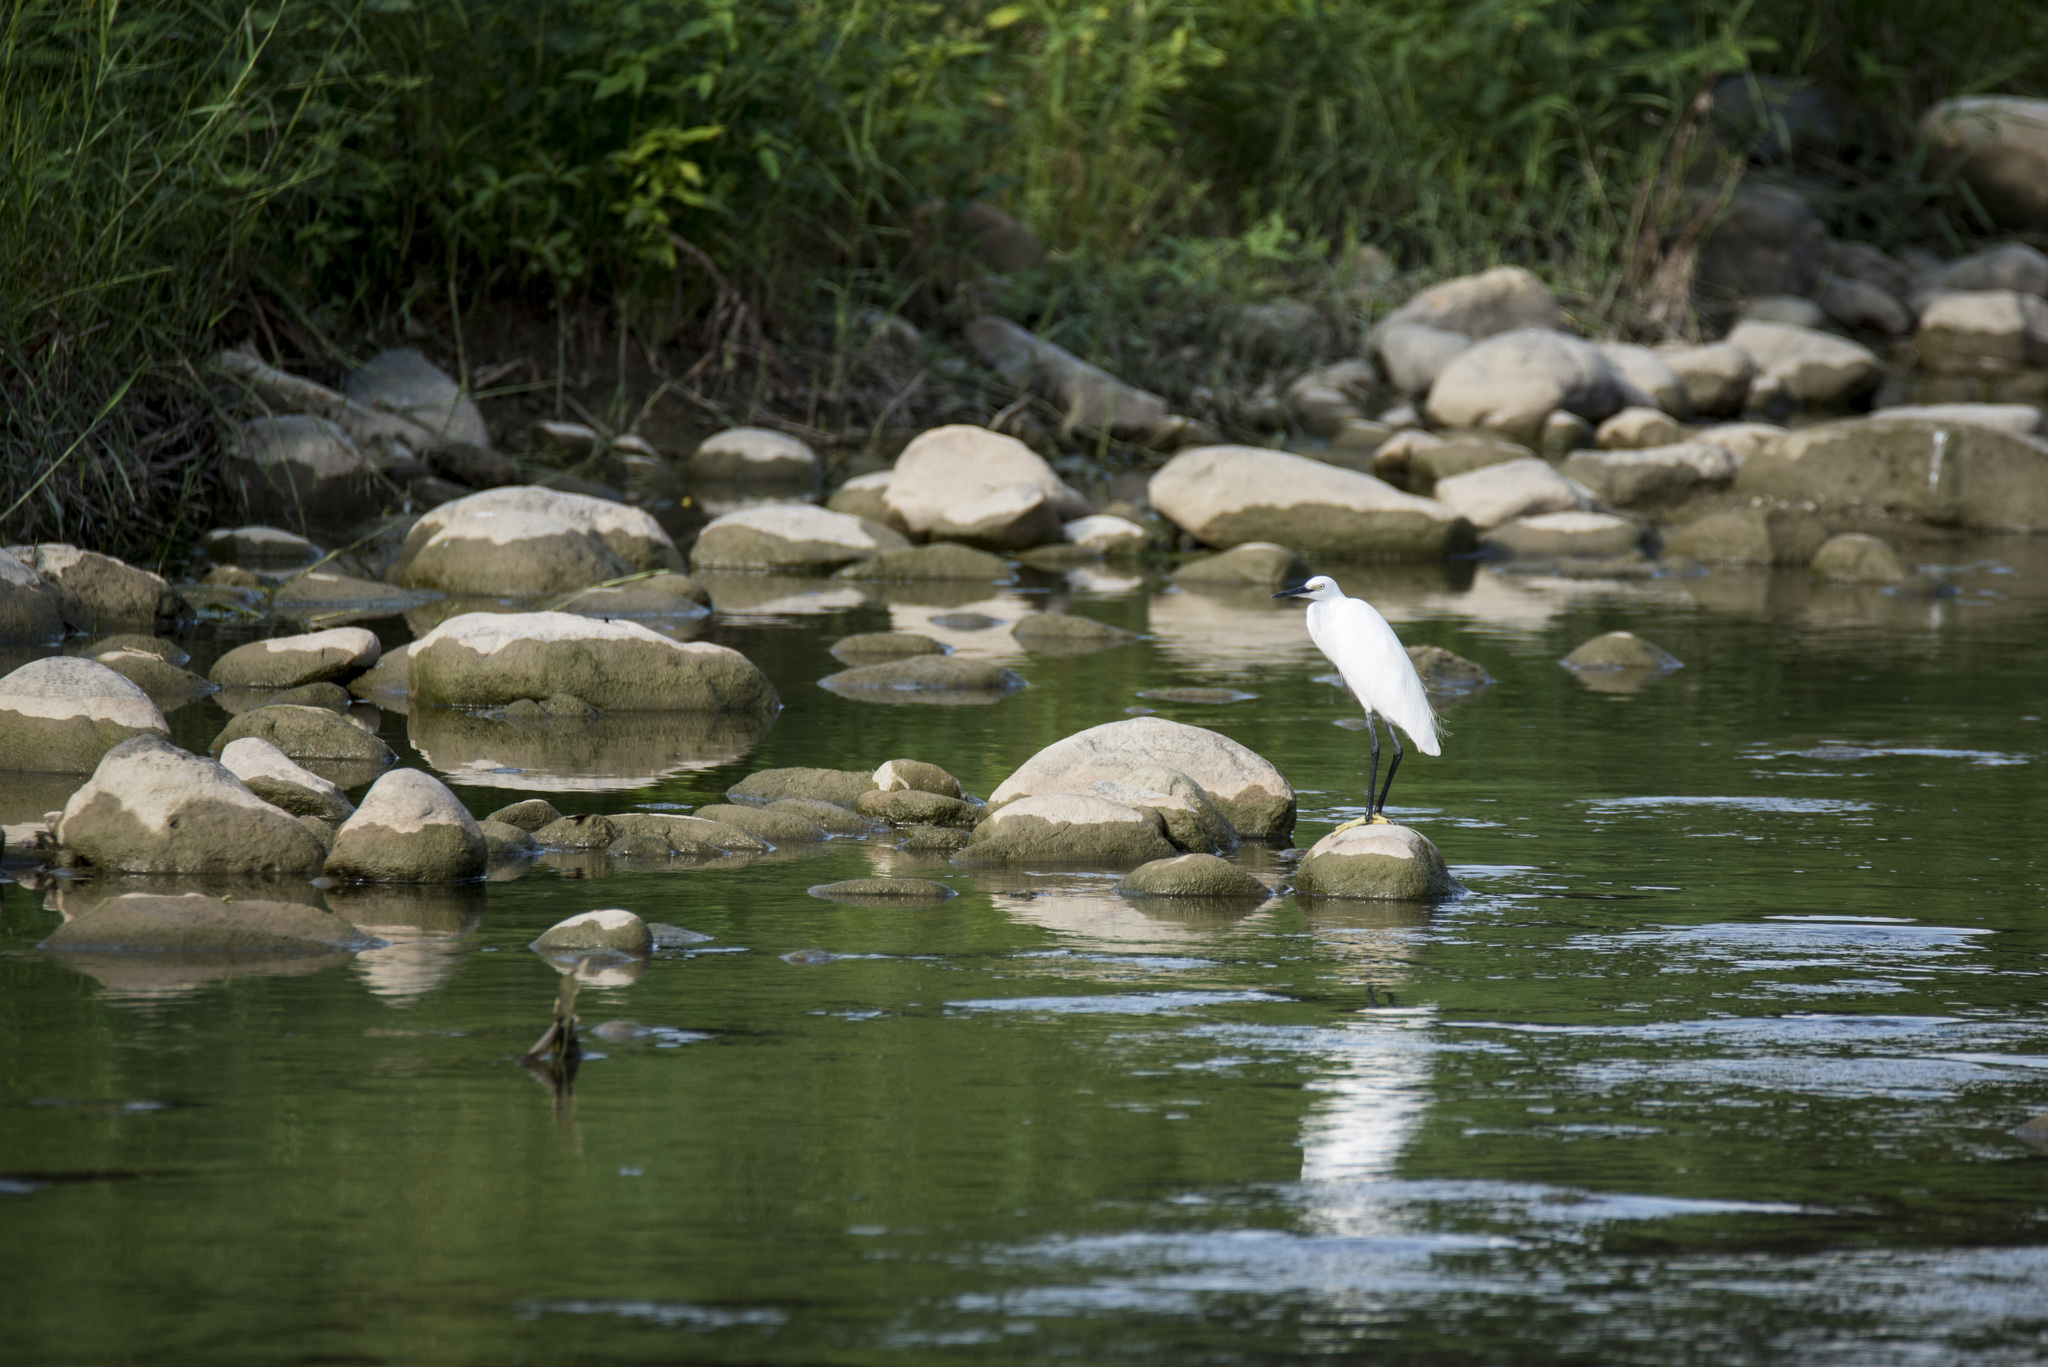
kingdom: Animalia
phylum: Chordata
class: Aves
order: Pelecaniformes
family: Ardeidae
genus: Egretta
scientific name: Egretta garzetta
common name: Little egret
